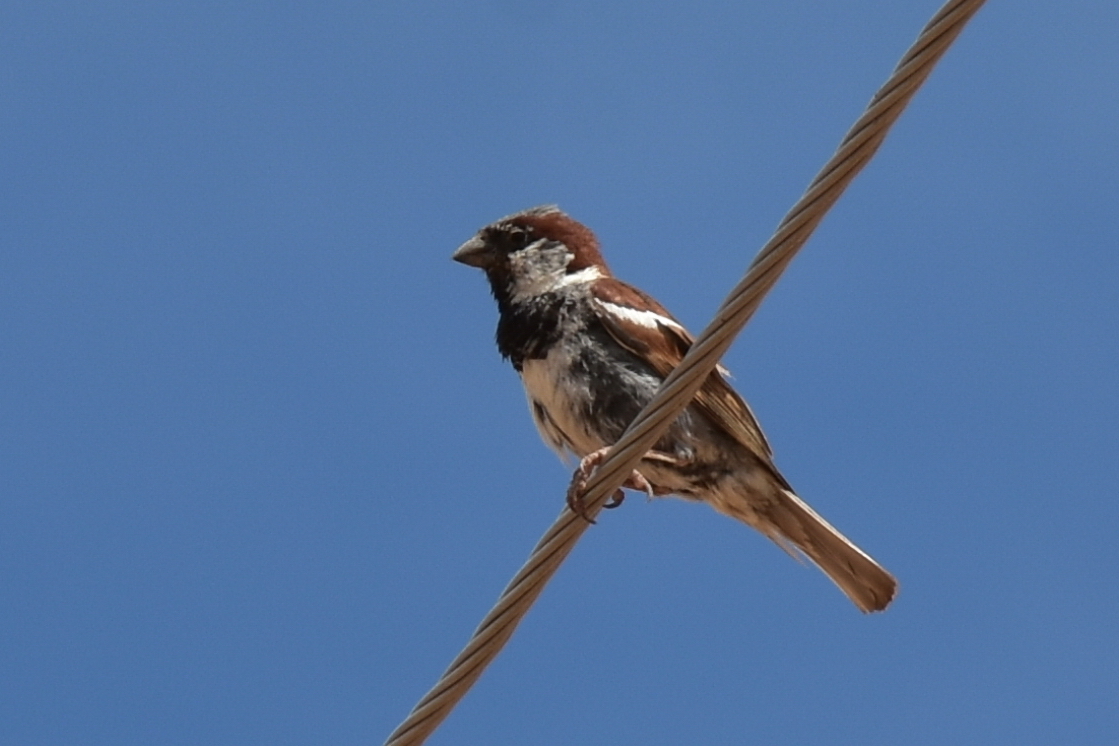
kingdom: Animalia
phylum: Chordata
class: Aves
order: Passeriformes
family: Passeridae
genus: Passer
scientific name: Passer domesticus
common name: House sparrow
